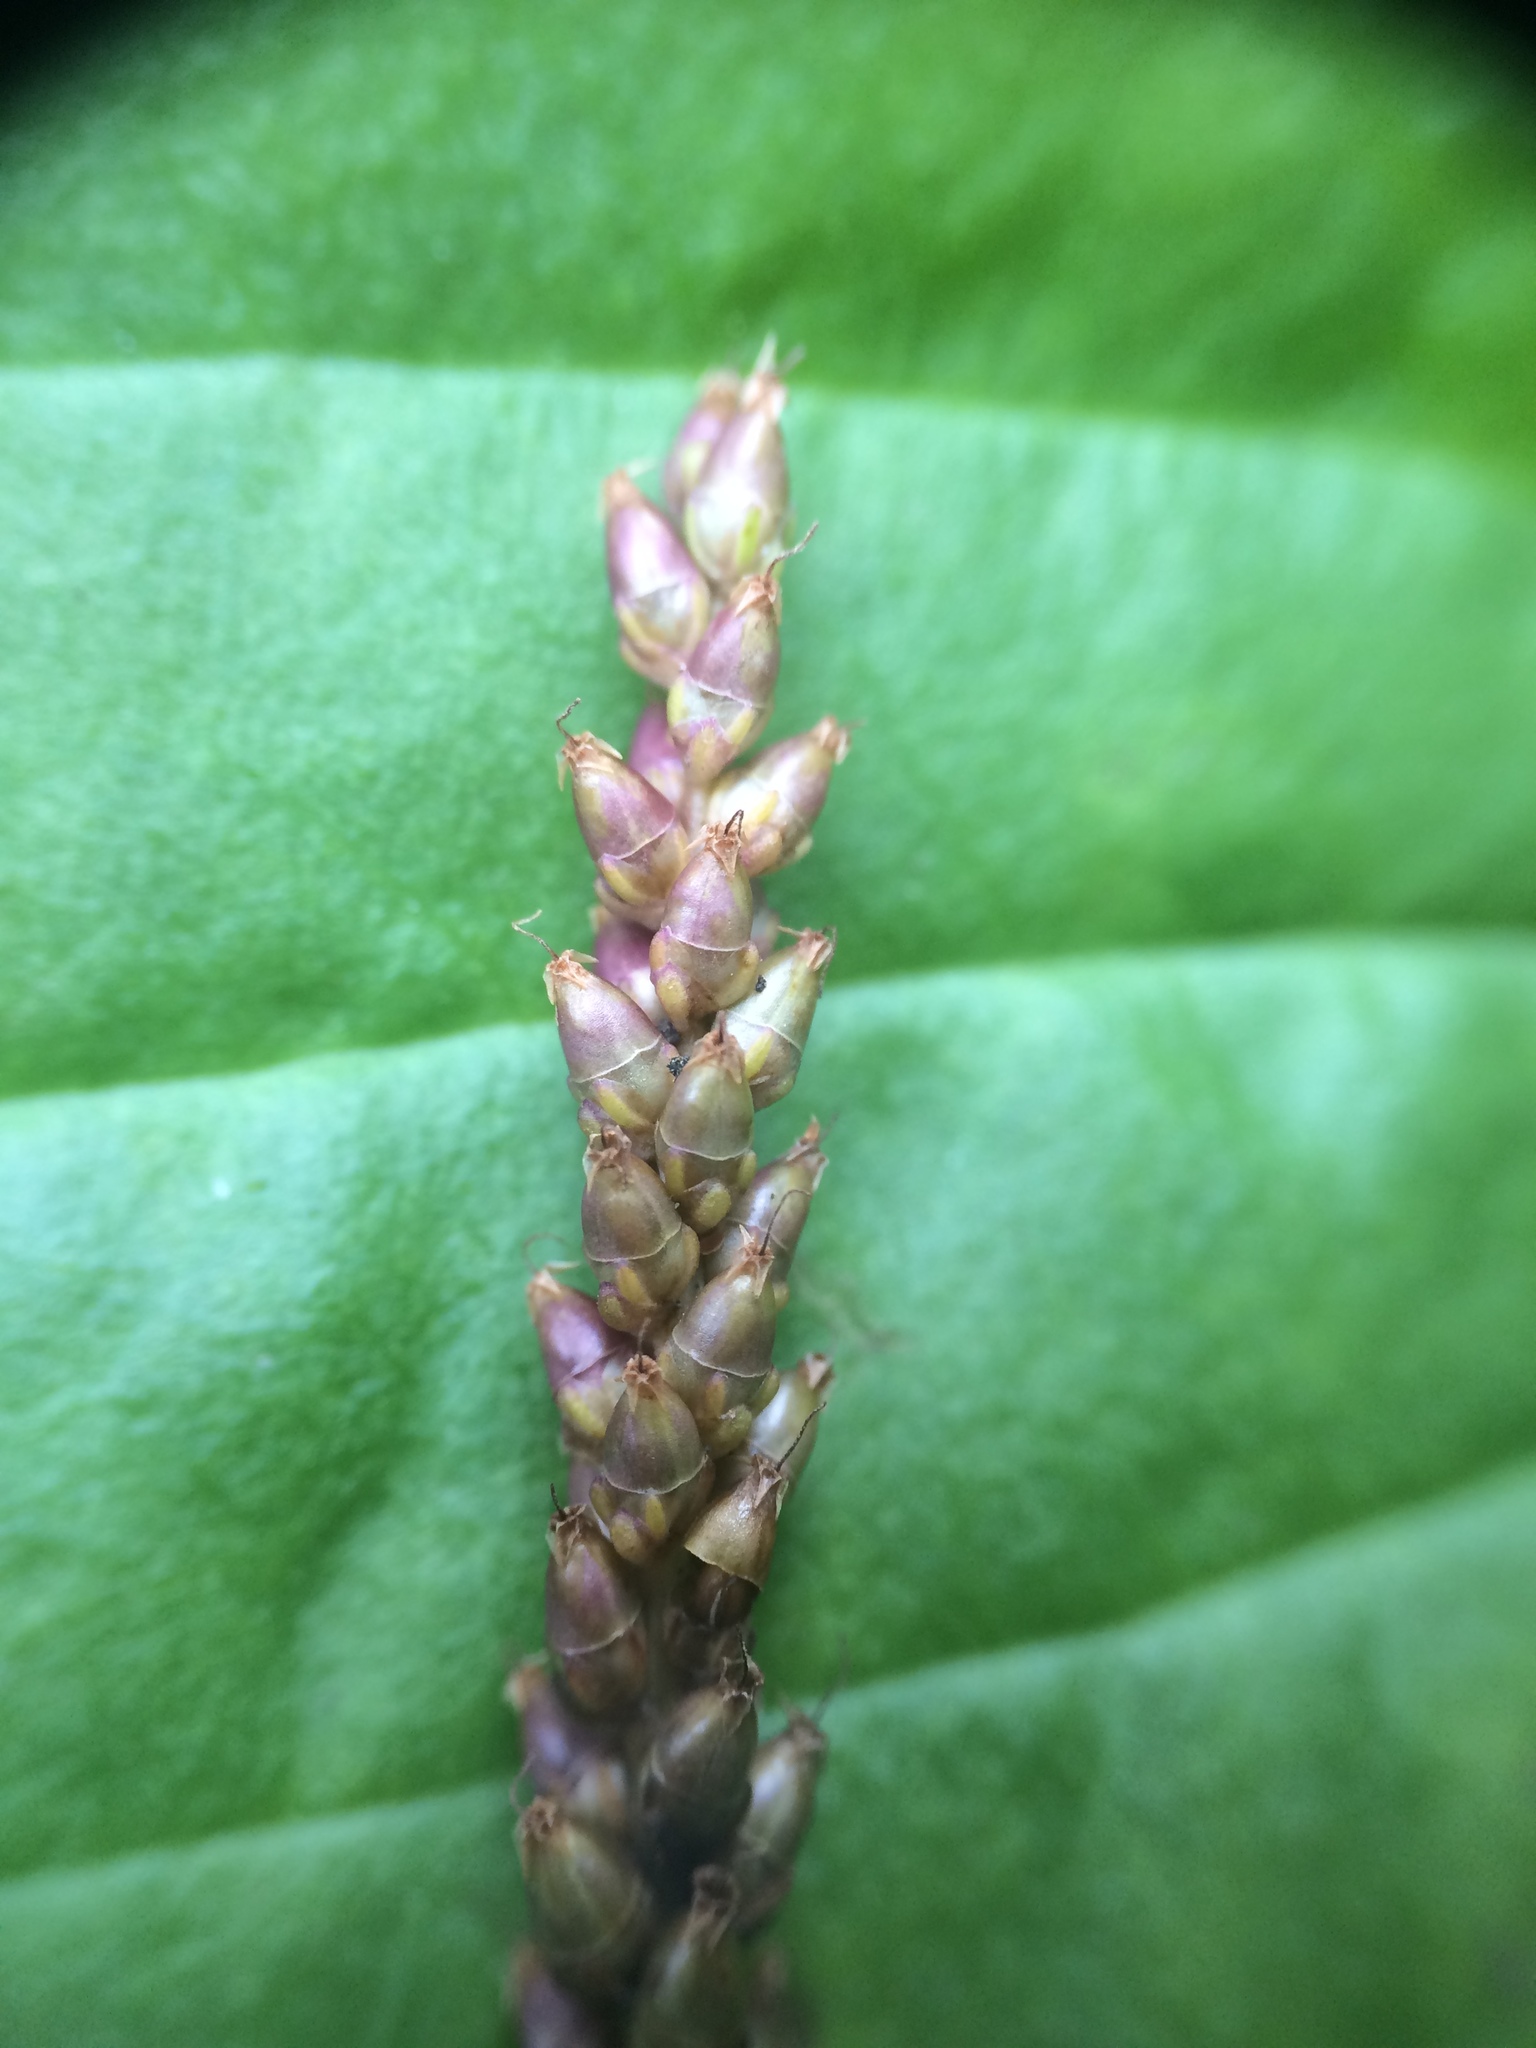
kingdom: Plantae
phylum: Tracheophyta
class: Magnoliopsida
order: Lamiales
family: Plantaginaceae
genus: Plantago
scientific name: Plantago major
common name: Common plantain
